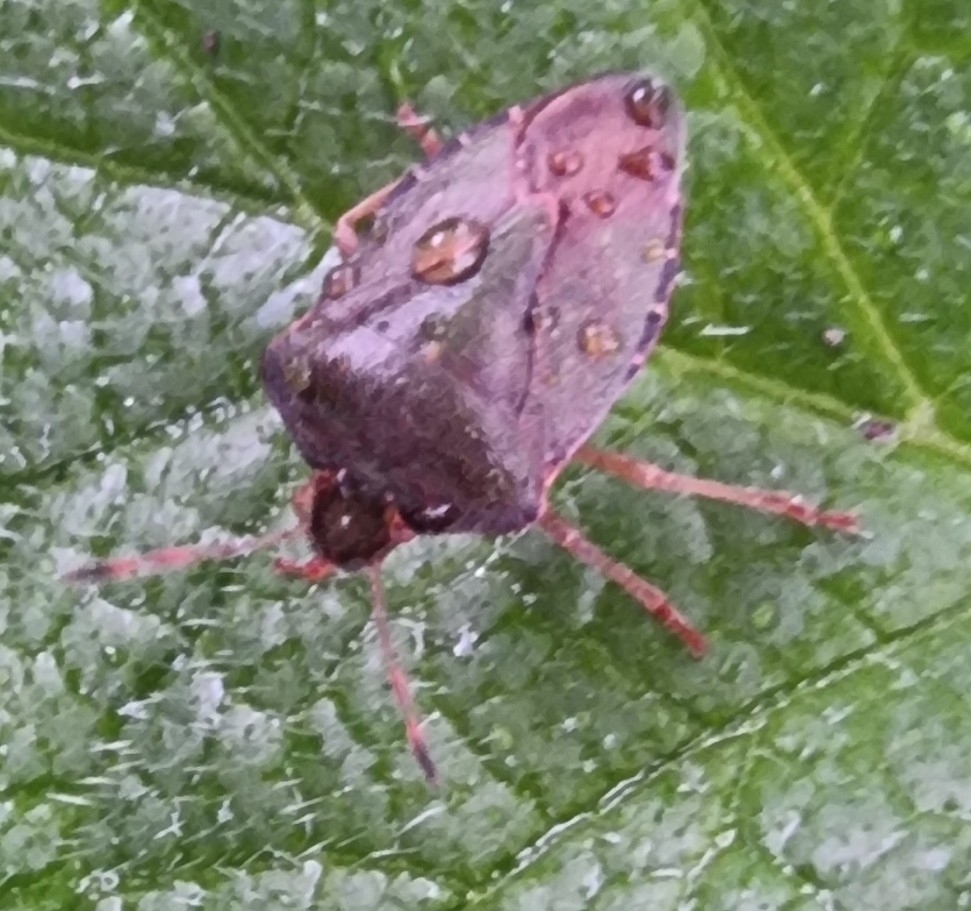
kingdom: Animalia
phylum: Arthropoda
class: Insecta
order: Hemiptera
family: Pentatomidae
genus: Palomena
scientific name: Palomena prasina
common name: Green shieldbug
